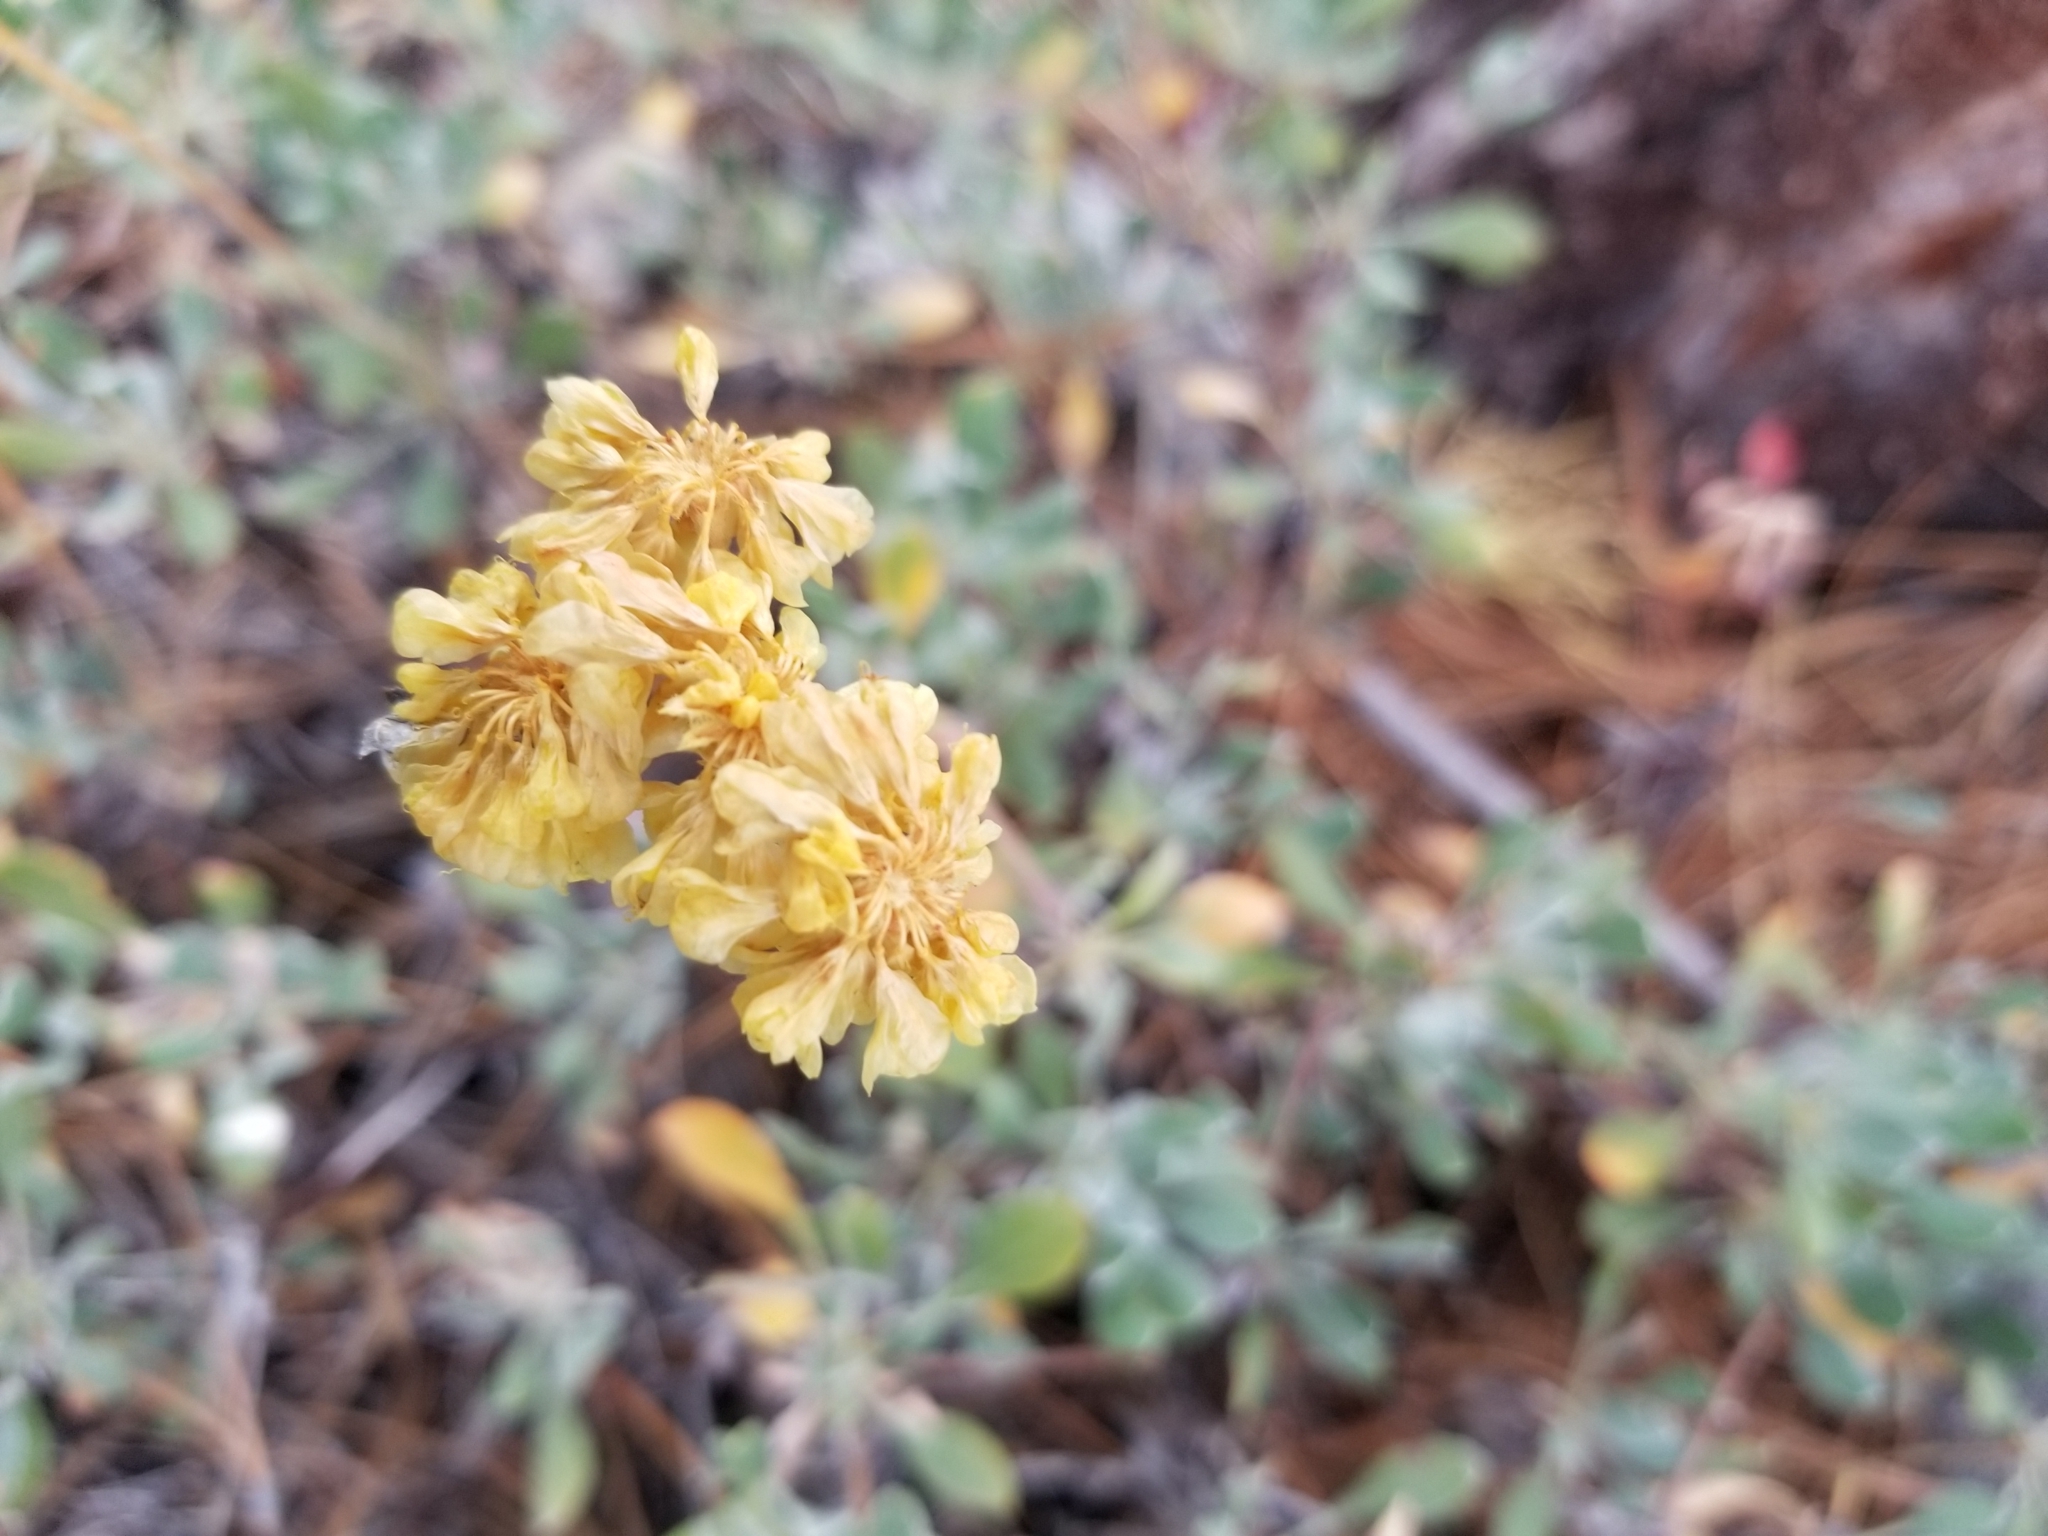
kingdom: Plantae
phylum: Tracheophyta
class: Magnoliopsida
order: Caryophyllales
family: Polygonaceae
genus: Eriogonum
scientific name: Eriogonum umbellatum
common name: Sulfur-buckwheat
